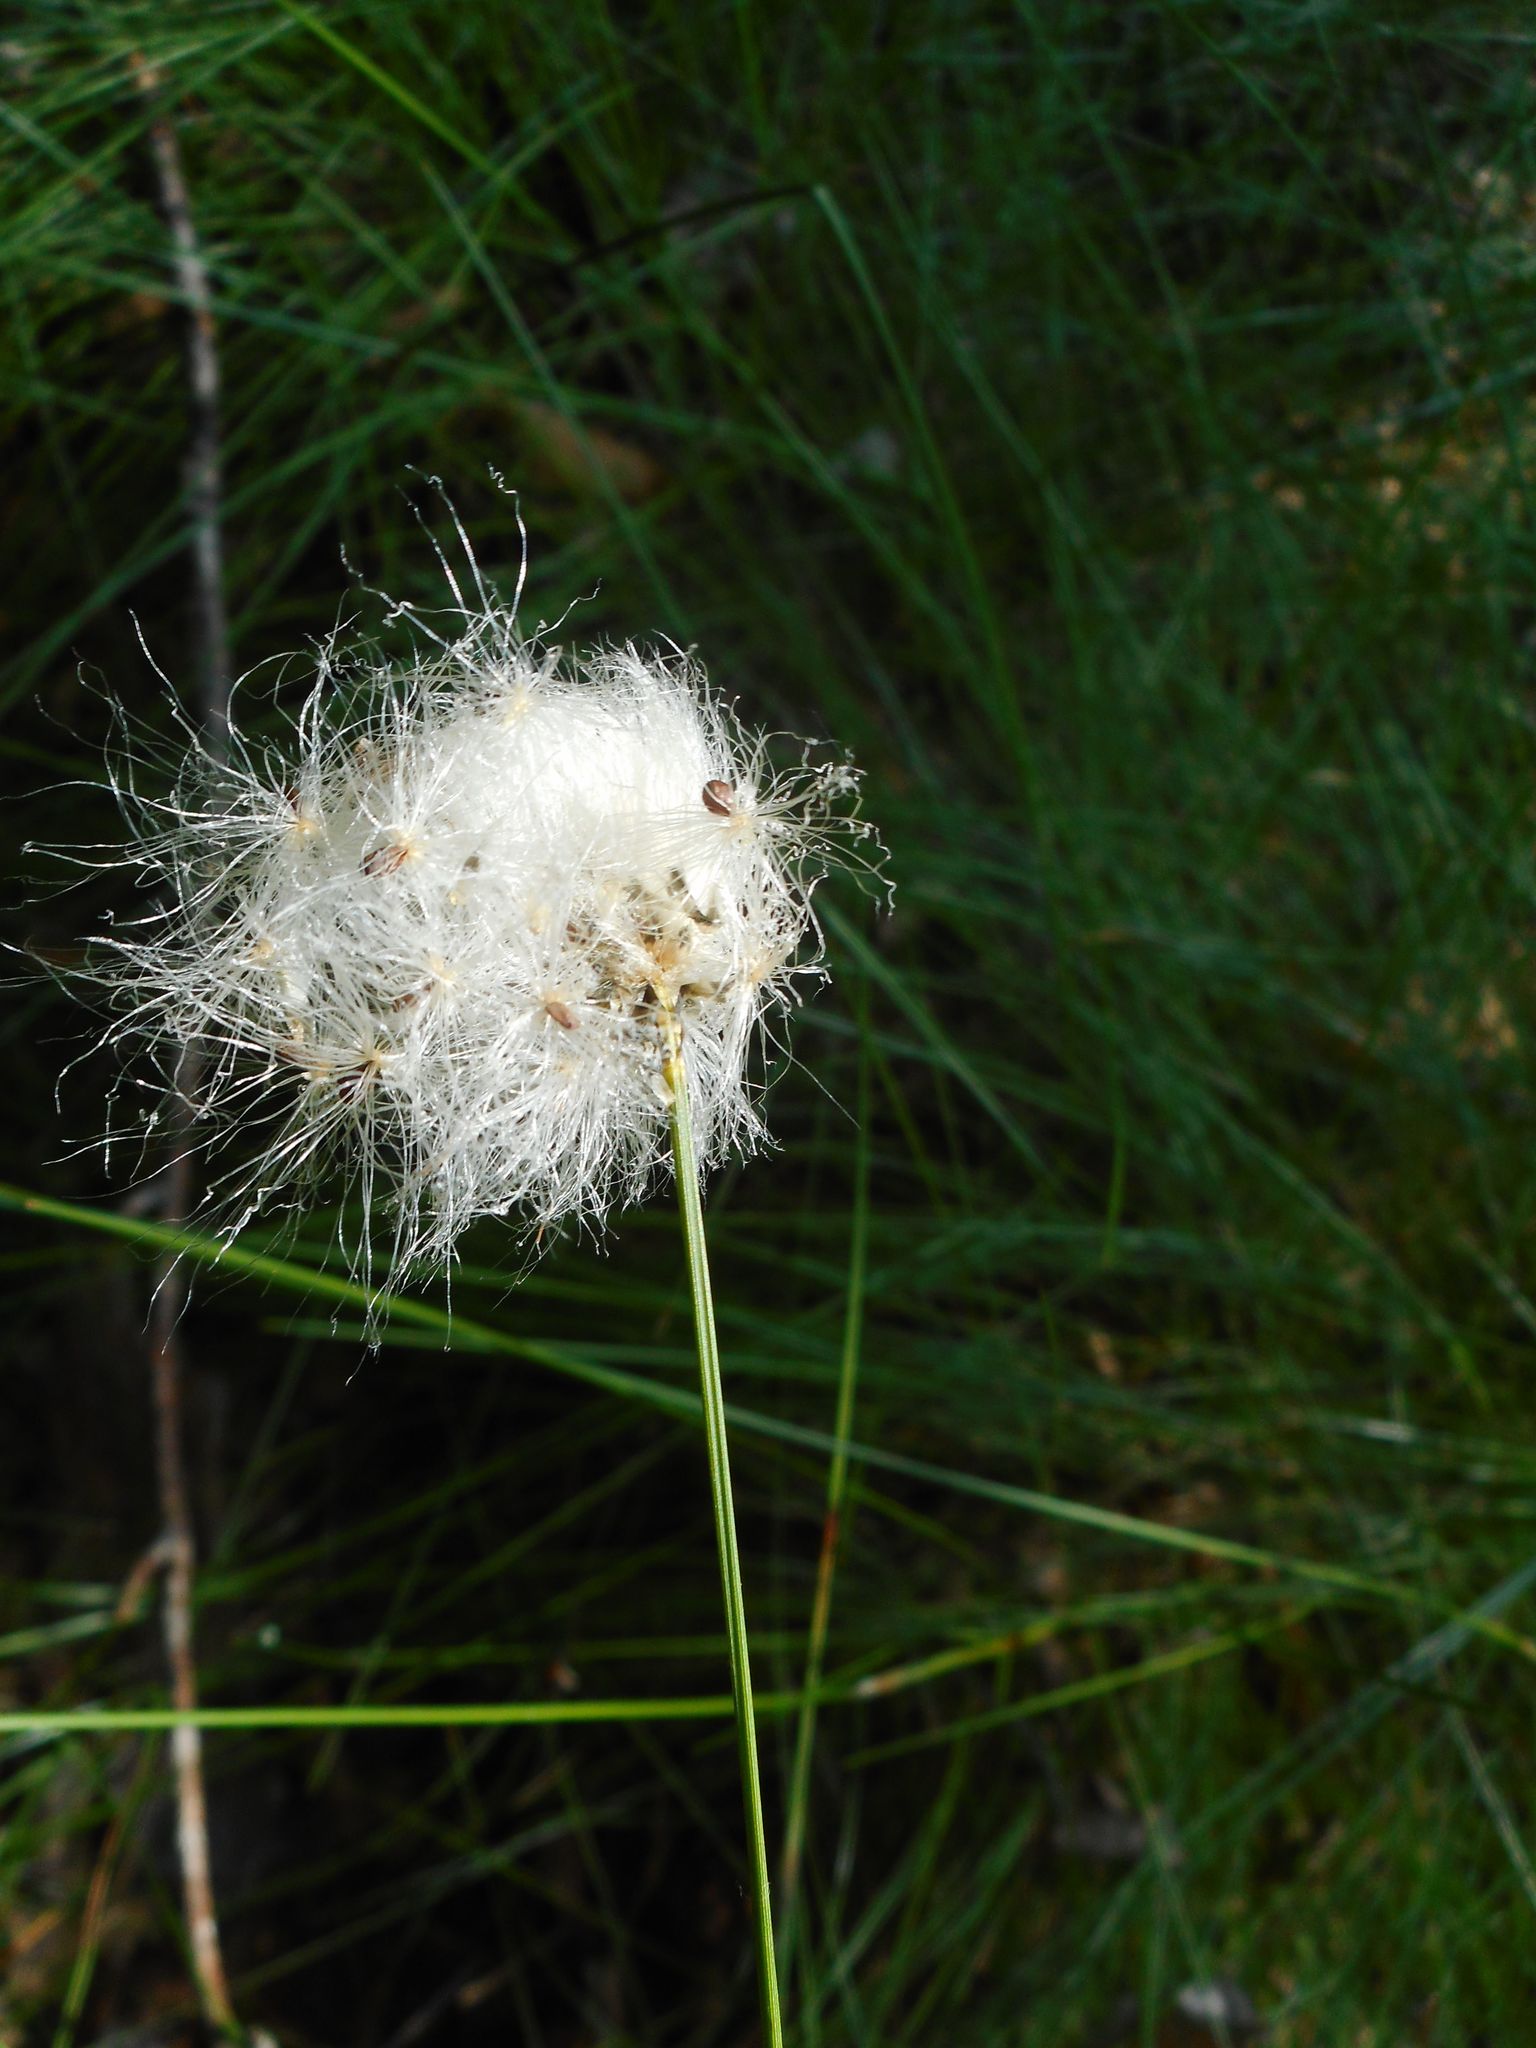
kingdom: Plantae
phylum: Tracheophyta
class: Liliopsida
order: Poales
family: Cyperaceae
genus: Eriophorum
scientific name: Eriophorum vaginatum
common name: Hare's-tail cottongrass
